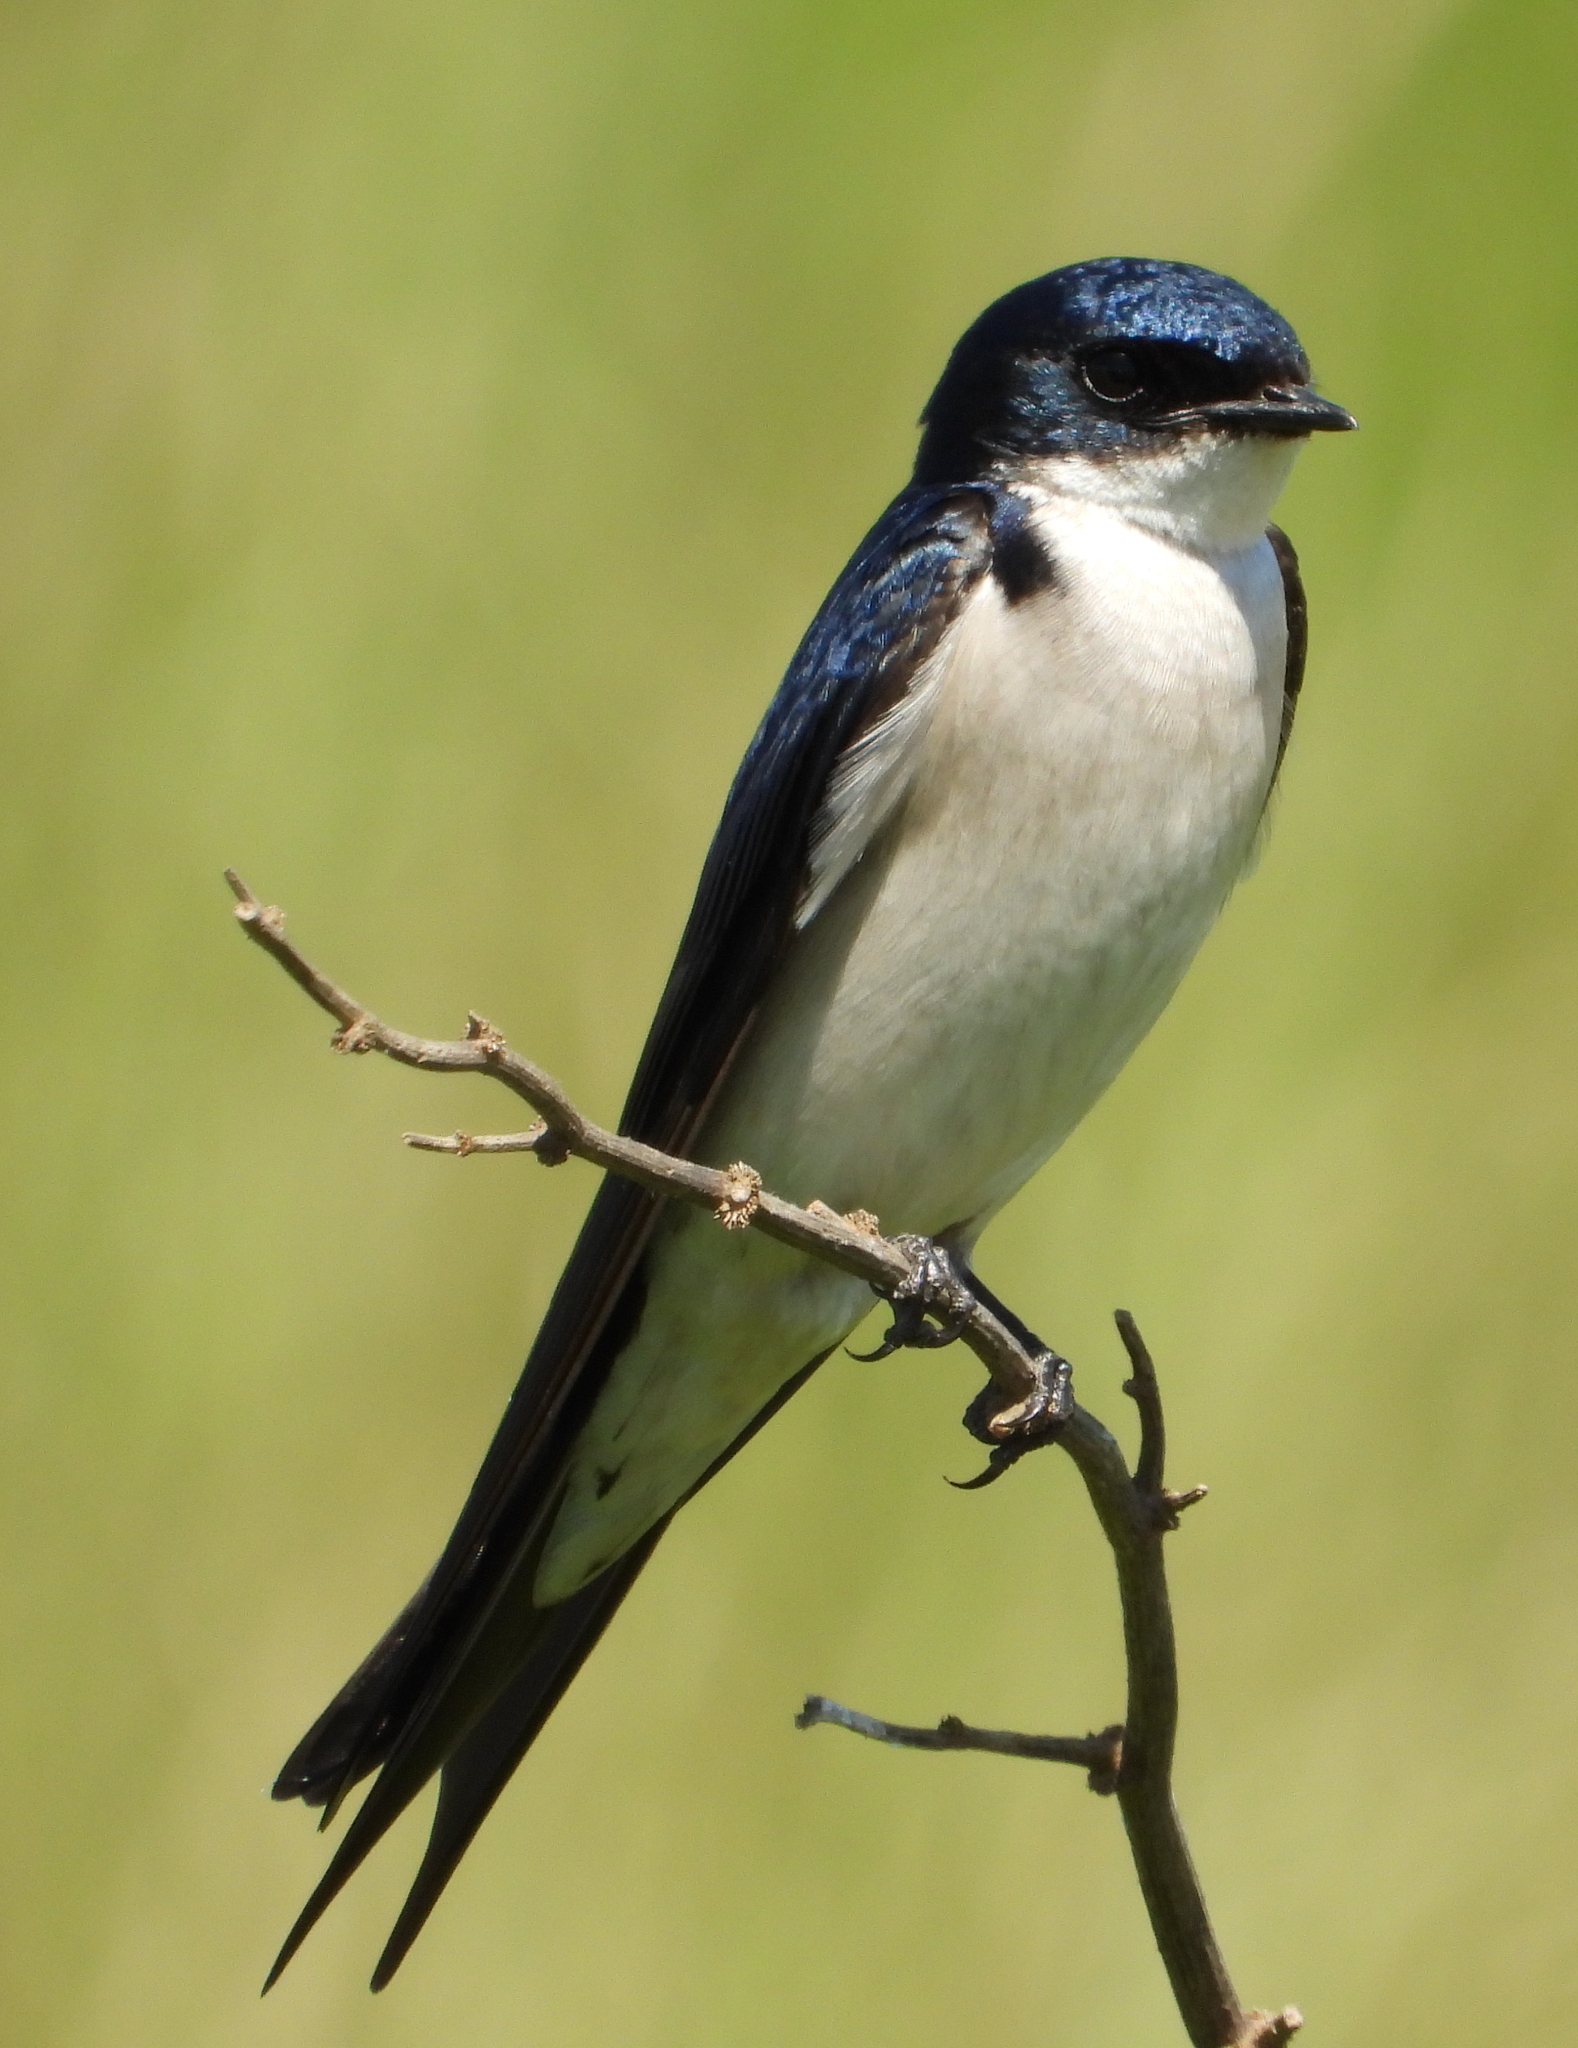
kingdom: Animalia
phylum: Chordata
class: Aves
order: Passeriformes
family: Hirundinidae
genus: Hirundo
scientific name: Hirundo dimidiata
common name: Pearl-breasted swallow
